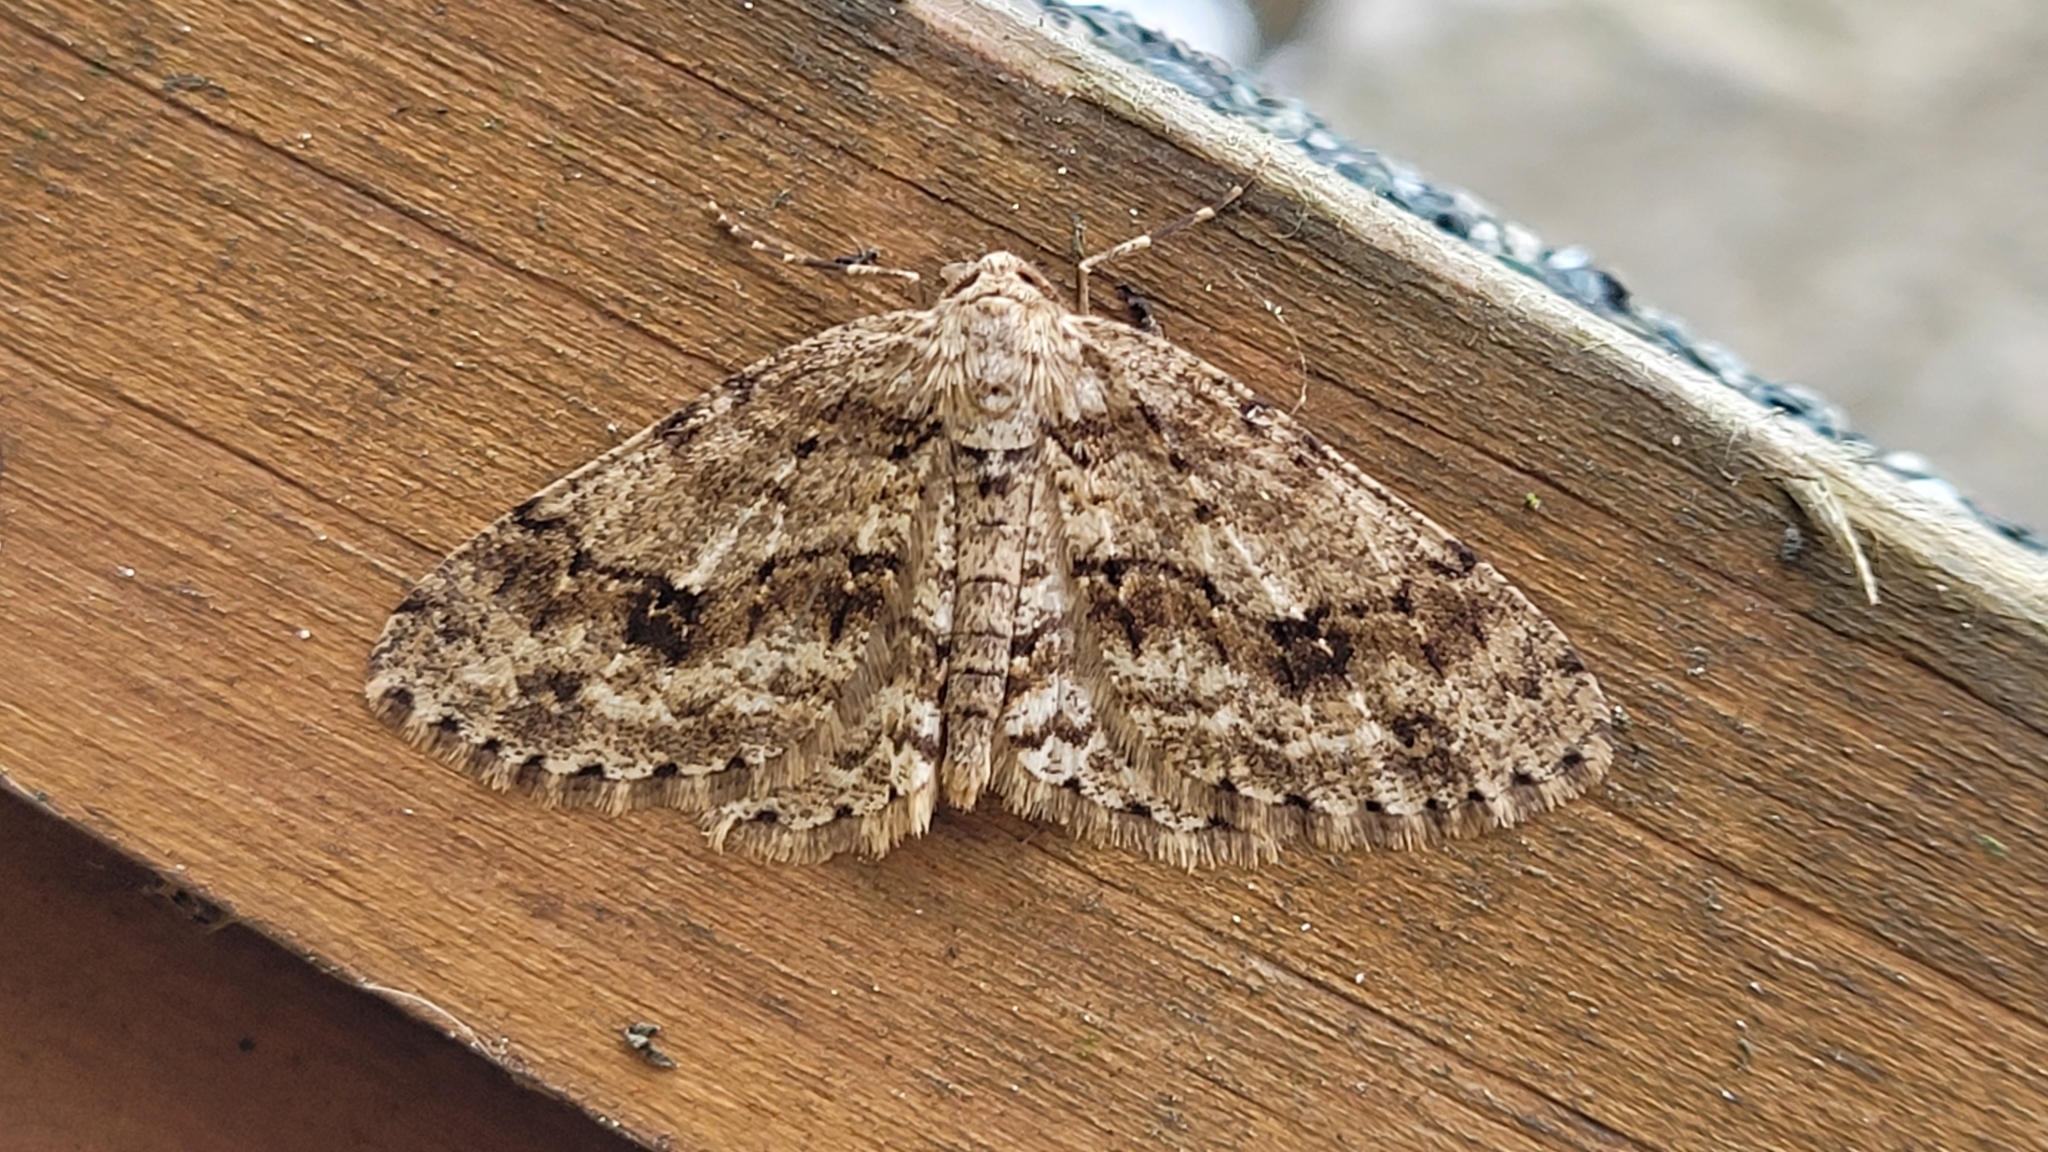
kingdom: Animalia
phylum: Arthropoda
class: Insecta
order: Lepidoptera
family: Geometridae
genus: Ectropis
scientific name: Ectropis crepuscularia
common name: Engrailed
